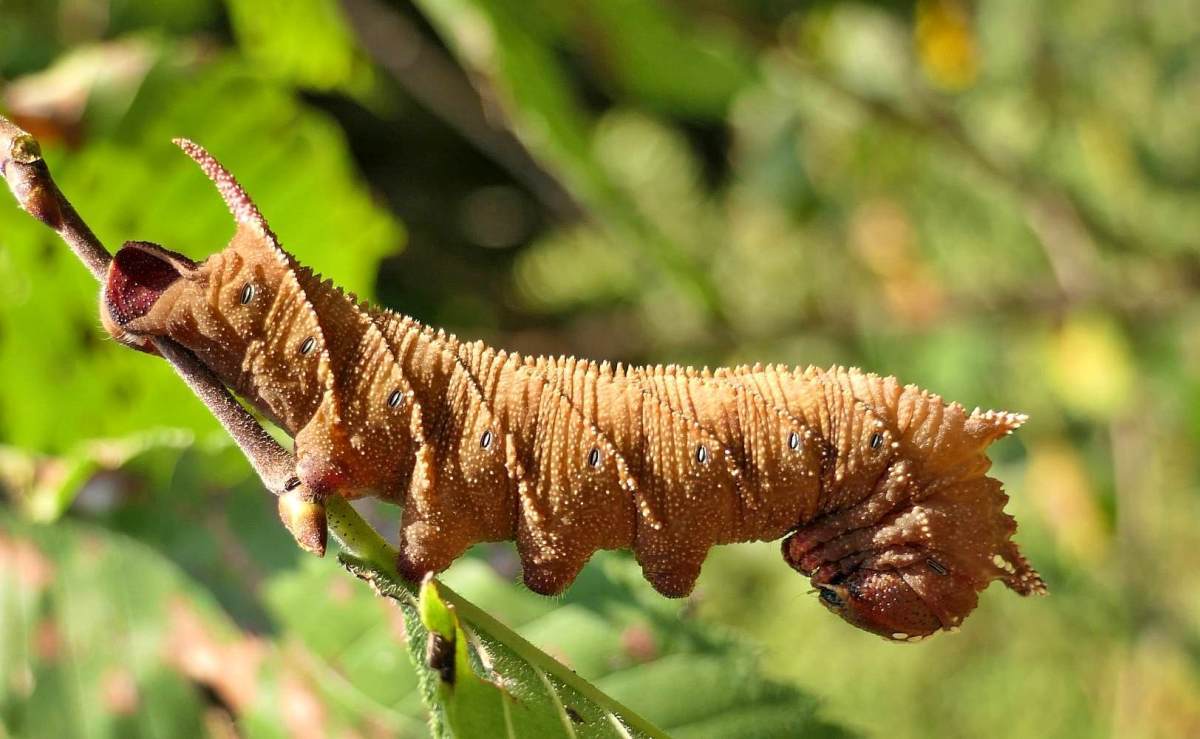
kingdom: Animalia
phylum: Arthropoda
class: Insecta
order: Lepidoptera
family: Sphingidae
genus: Ceratomia
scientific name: Ceratomia amyntor
